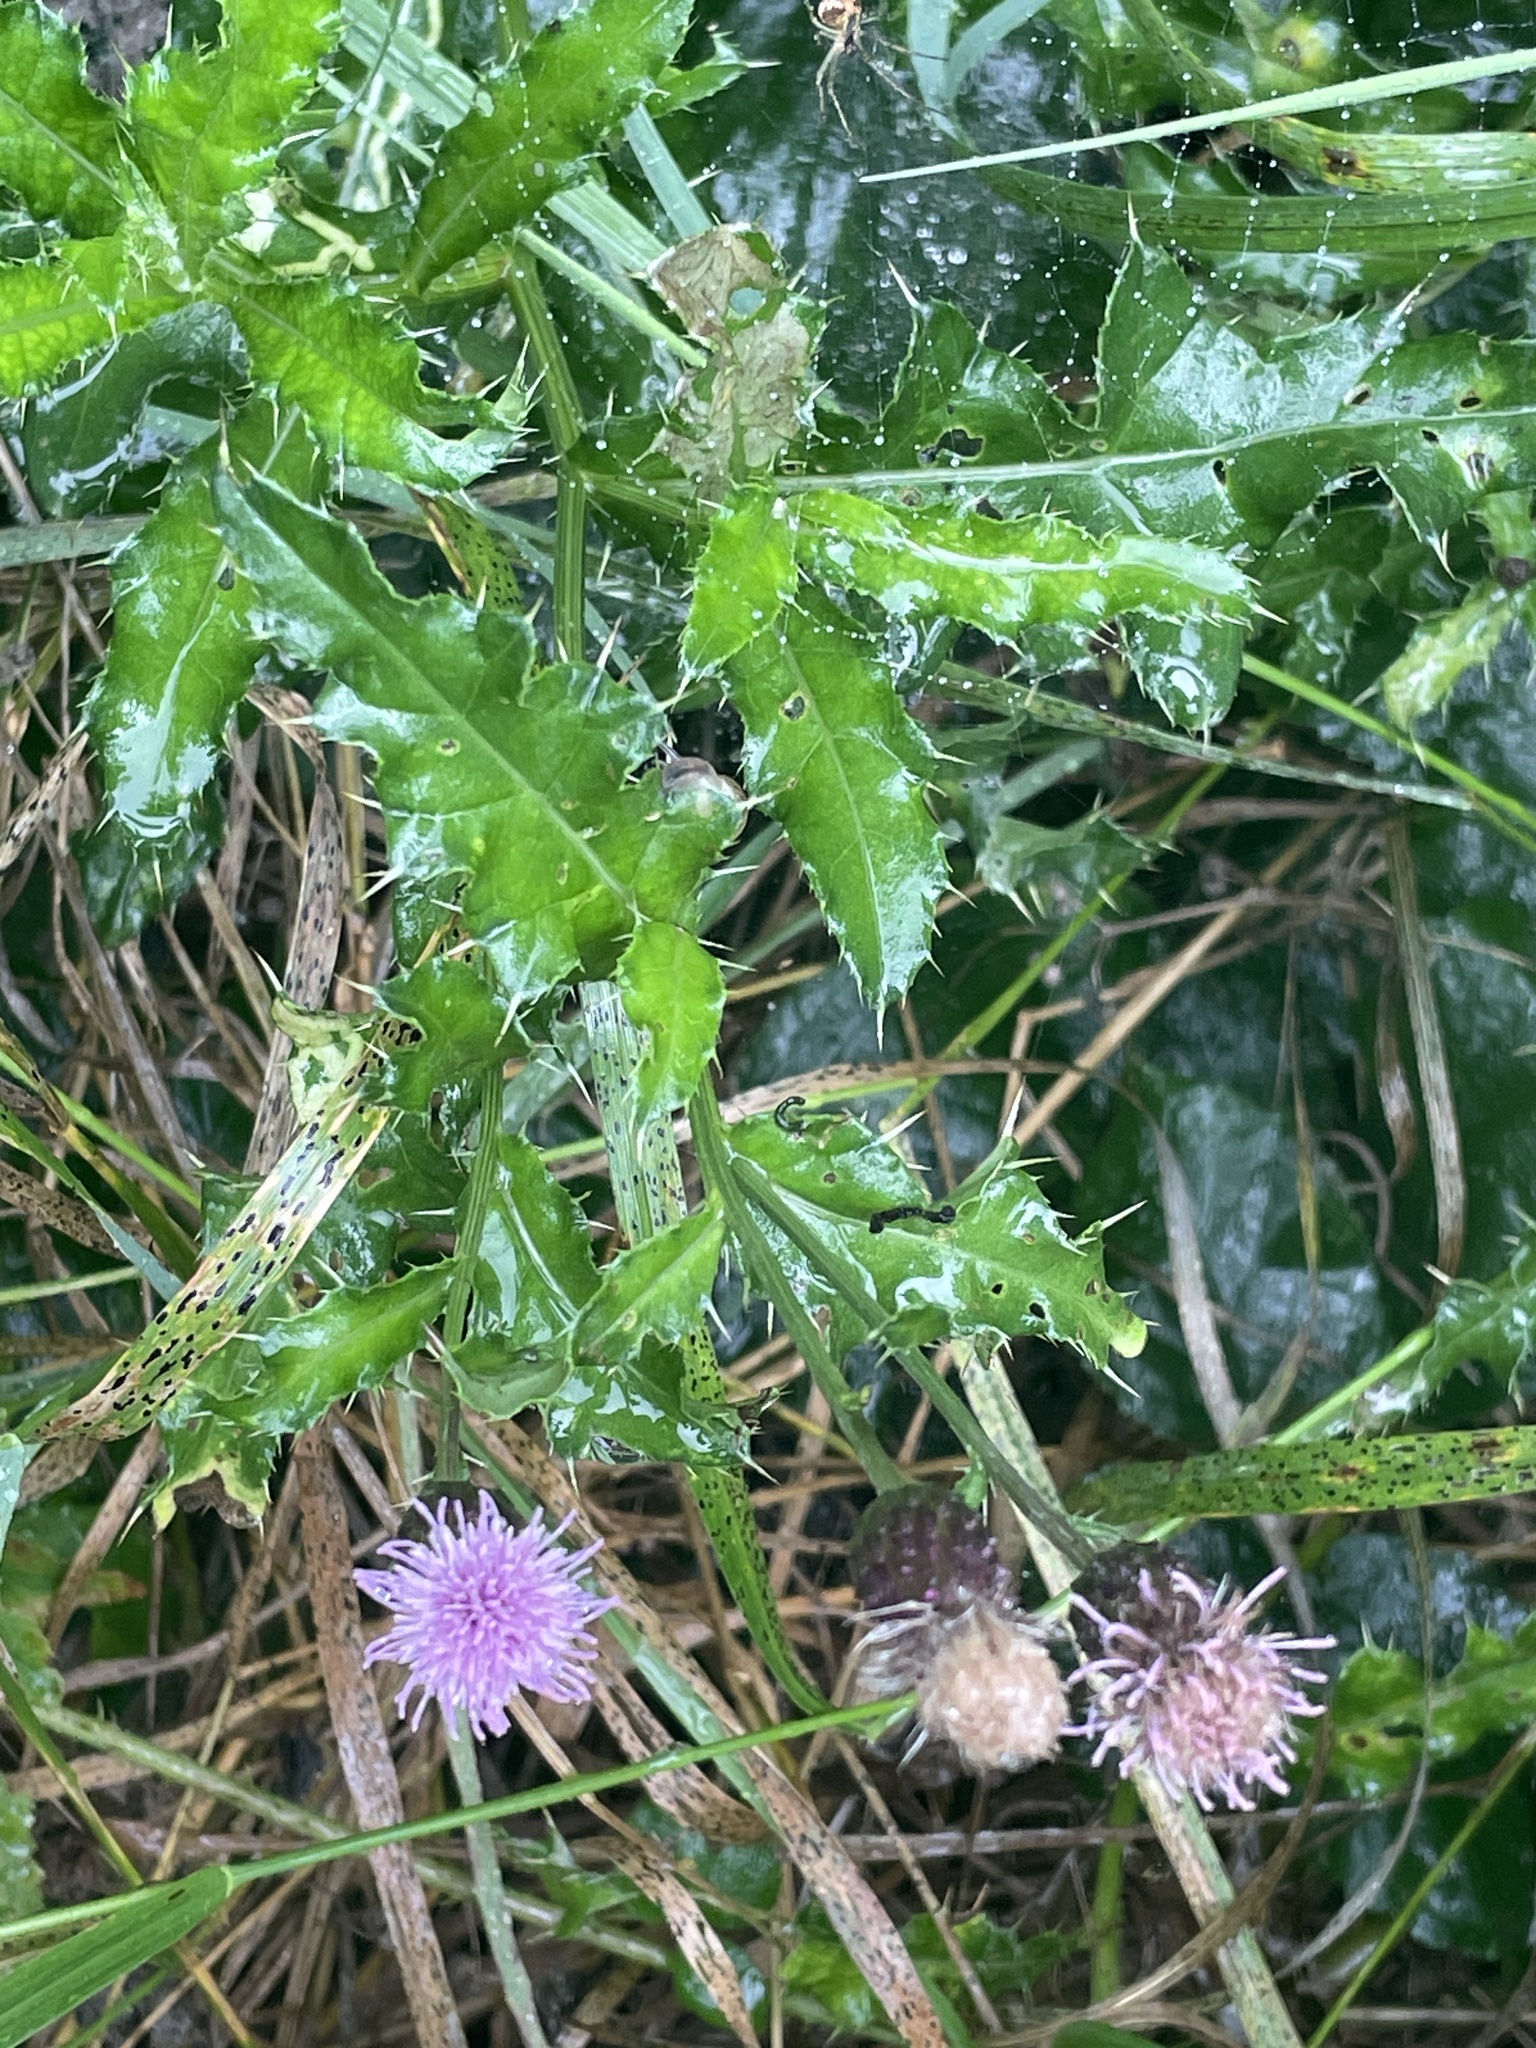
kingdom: Plantae
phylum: Tracheophyta
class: Magnoliopsida
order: Asterales
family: Asteraceae
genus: Cirsium
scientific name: Cirsium arvense
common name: Creeping thistle
